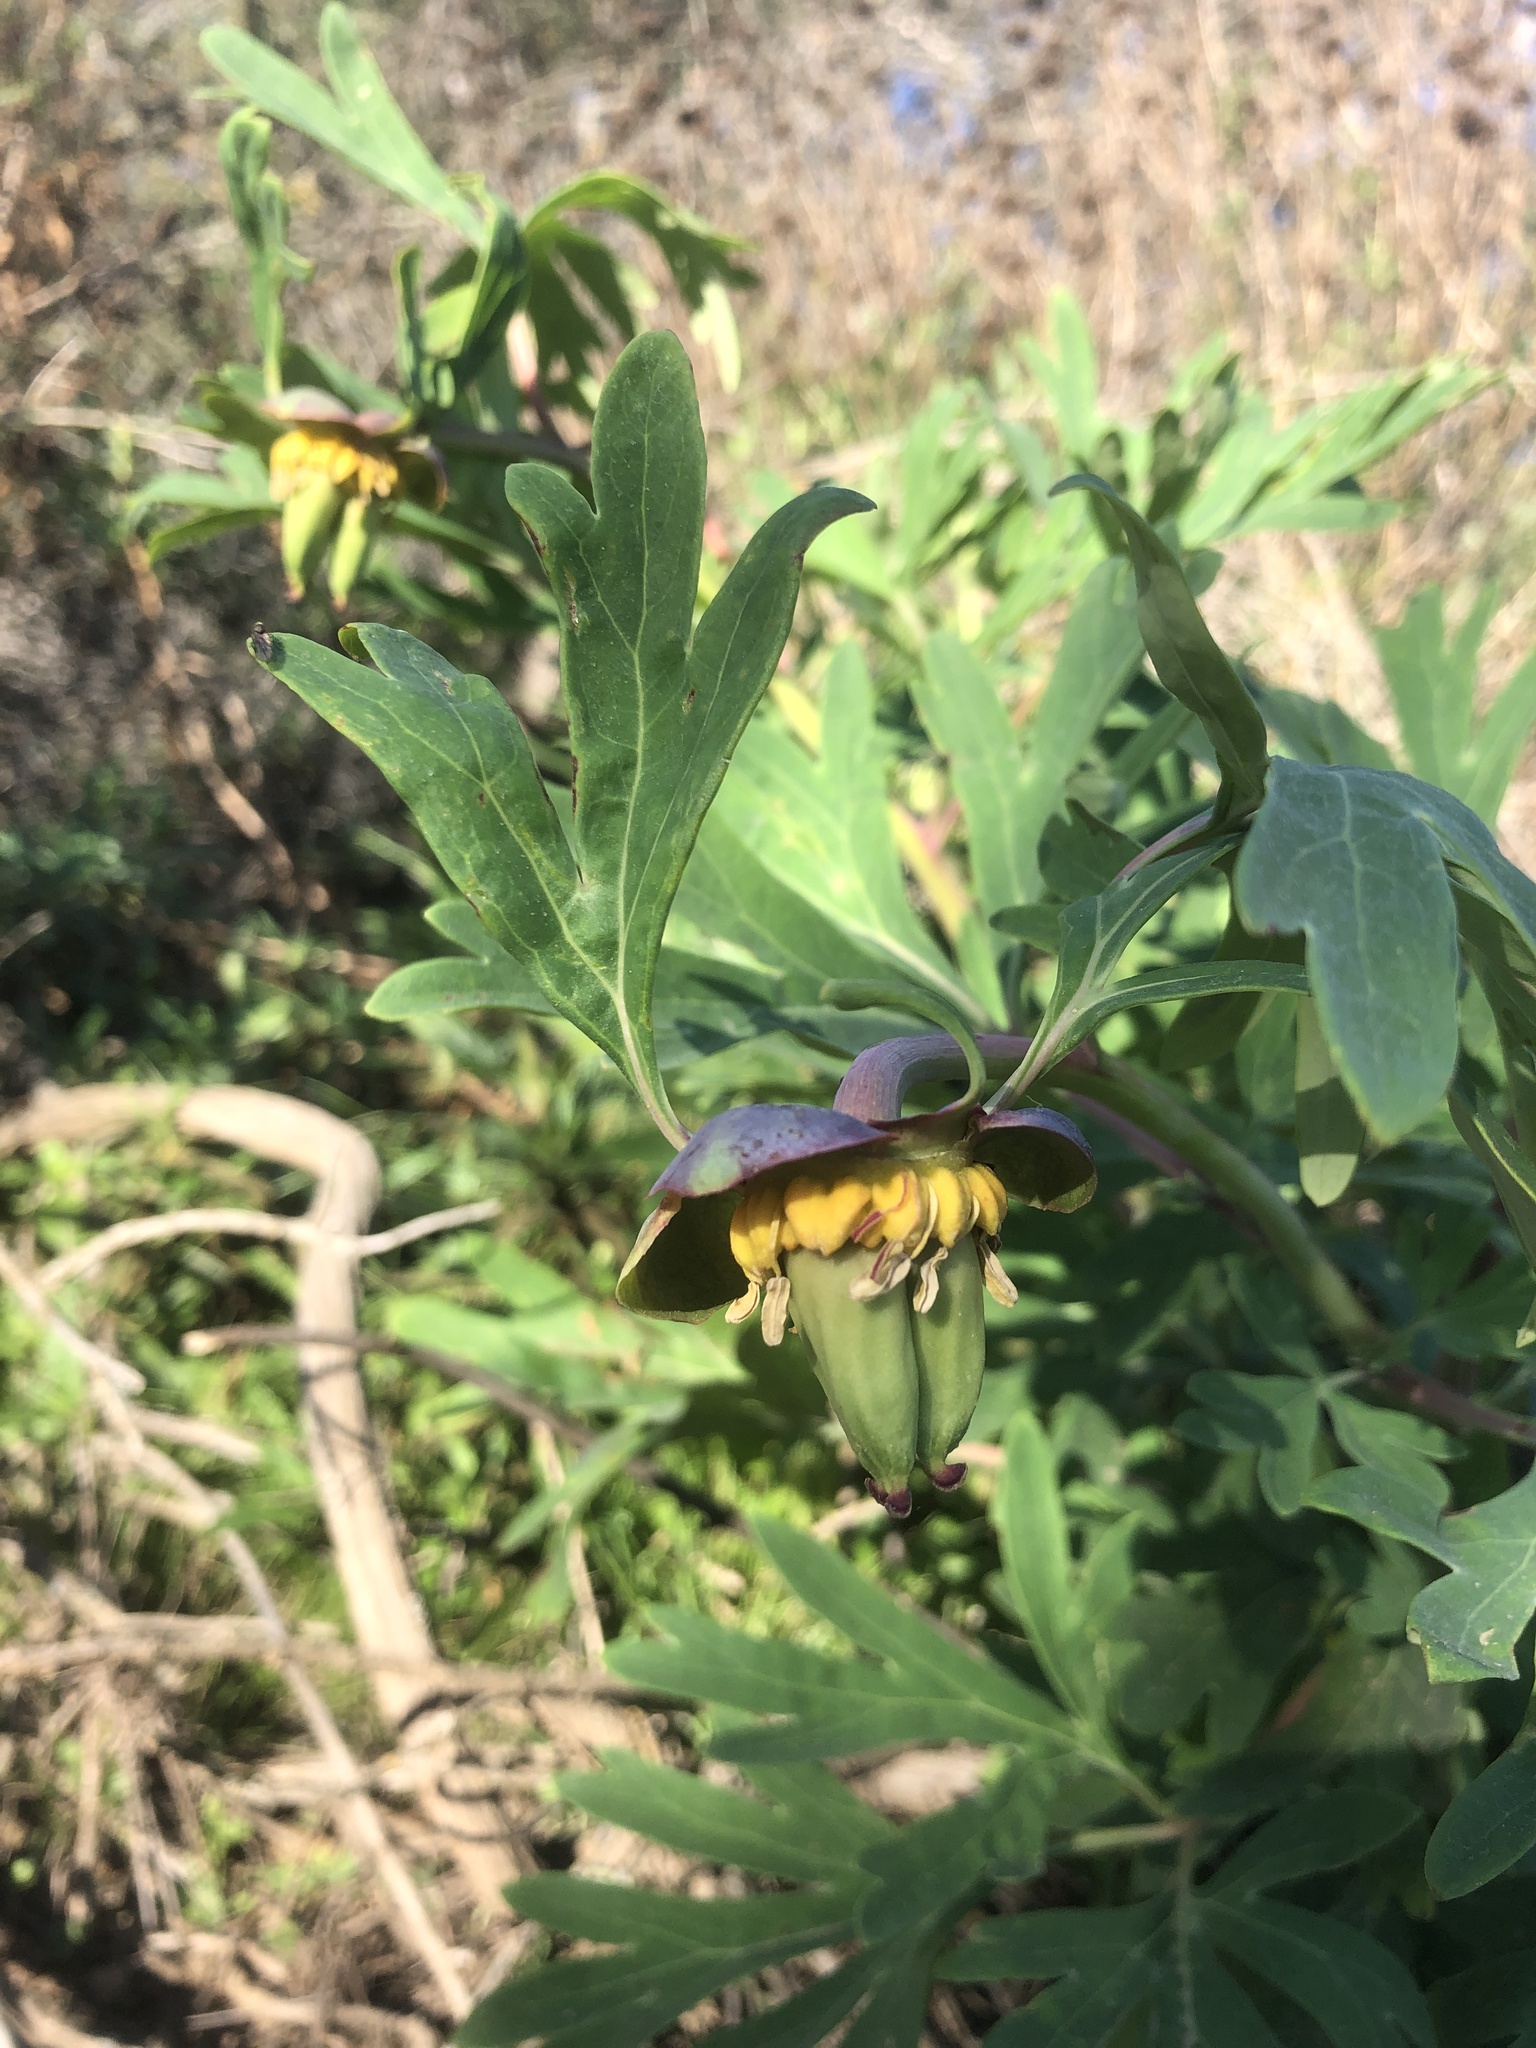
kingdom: Plantae
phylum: Tracheophyta
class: Magnoliopsida
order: Saxifragales
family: Paeoniaceae
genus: Paeonia
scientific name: Paeonia californica
